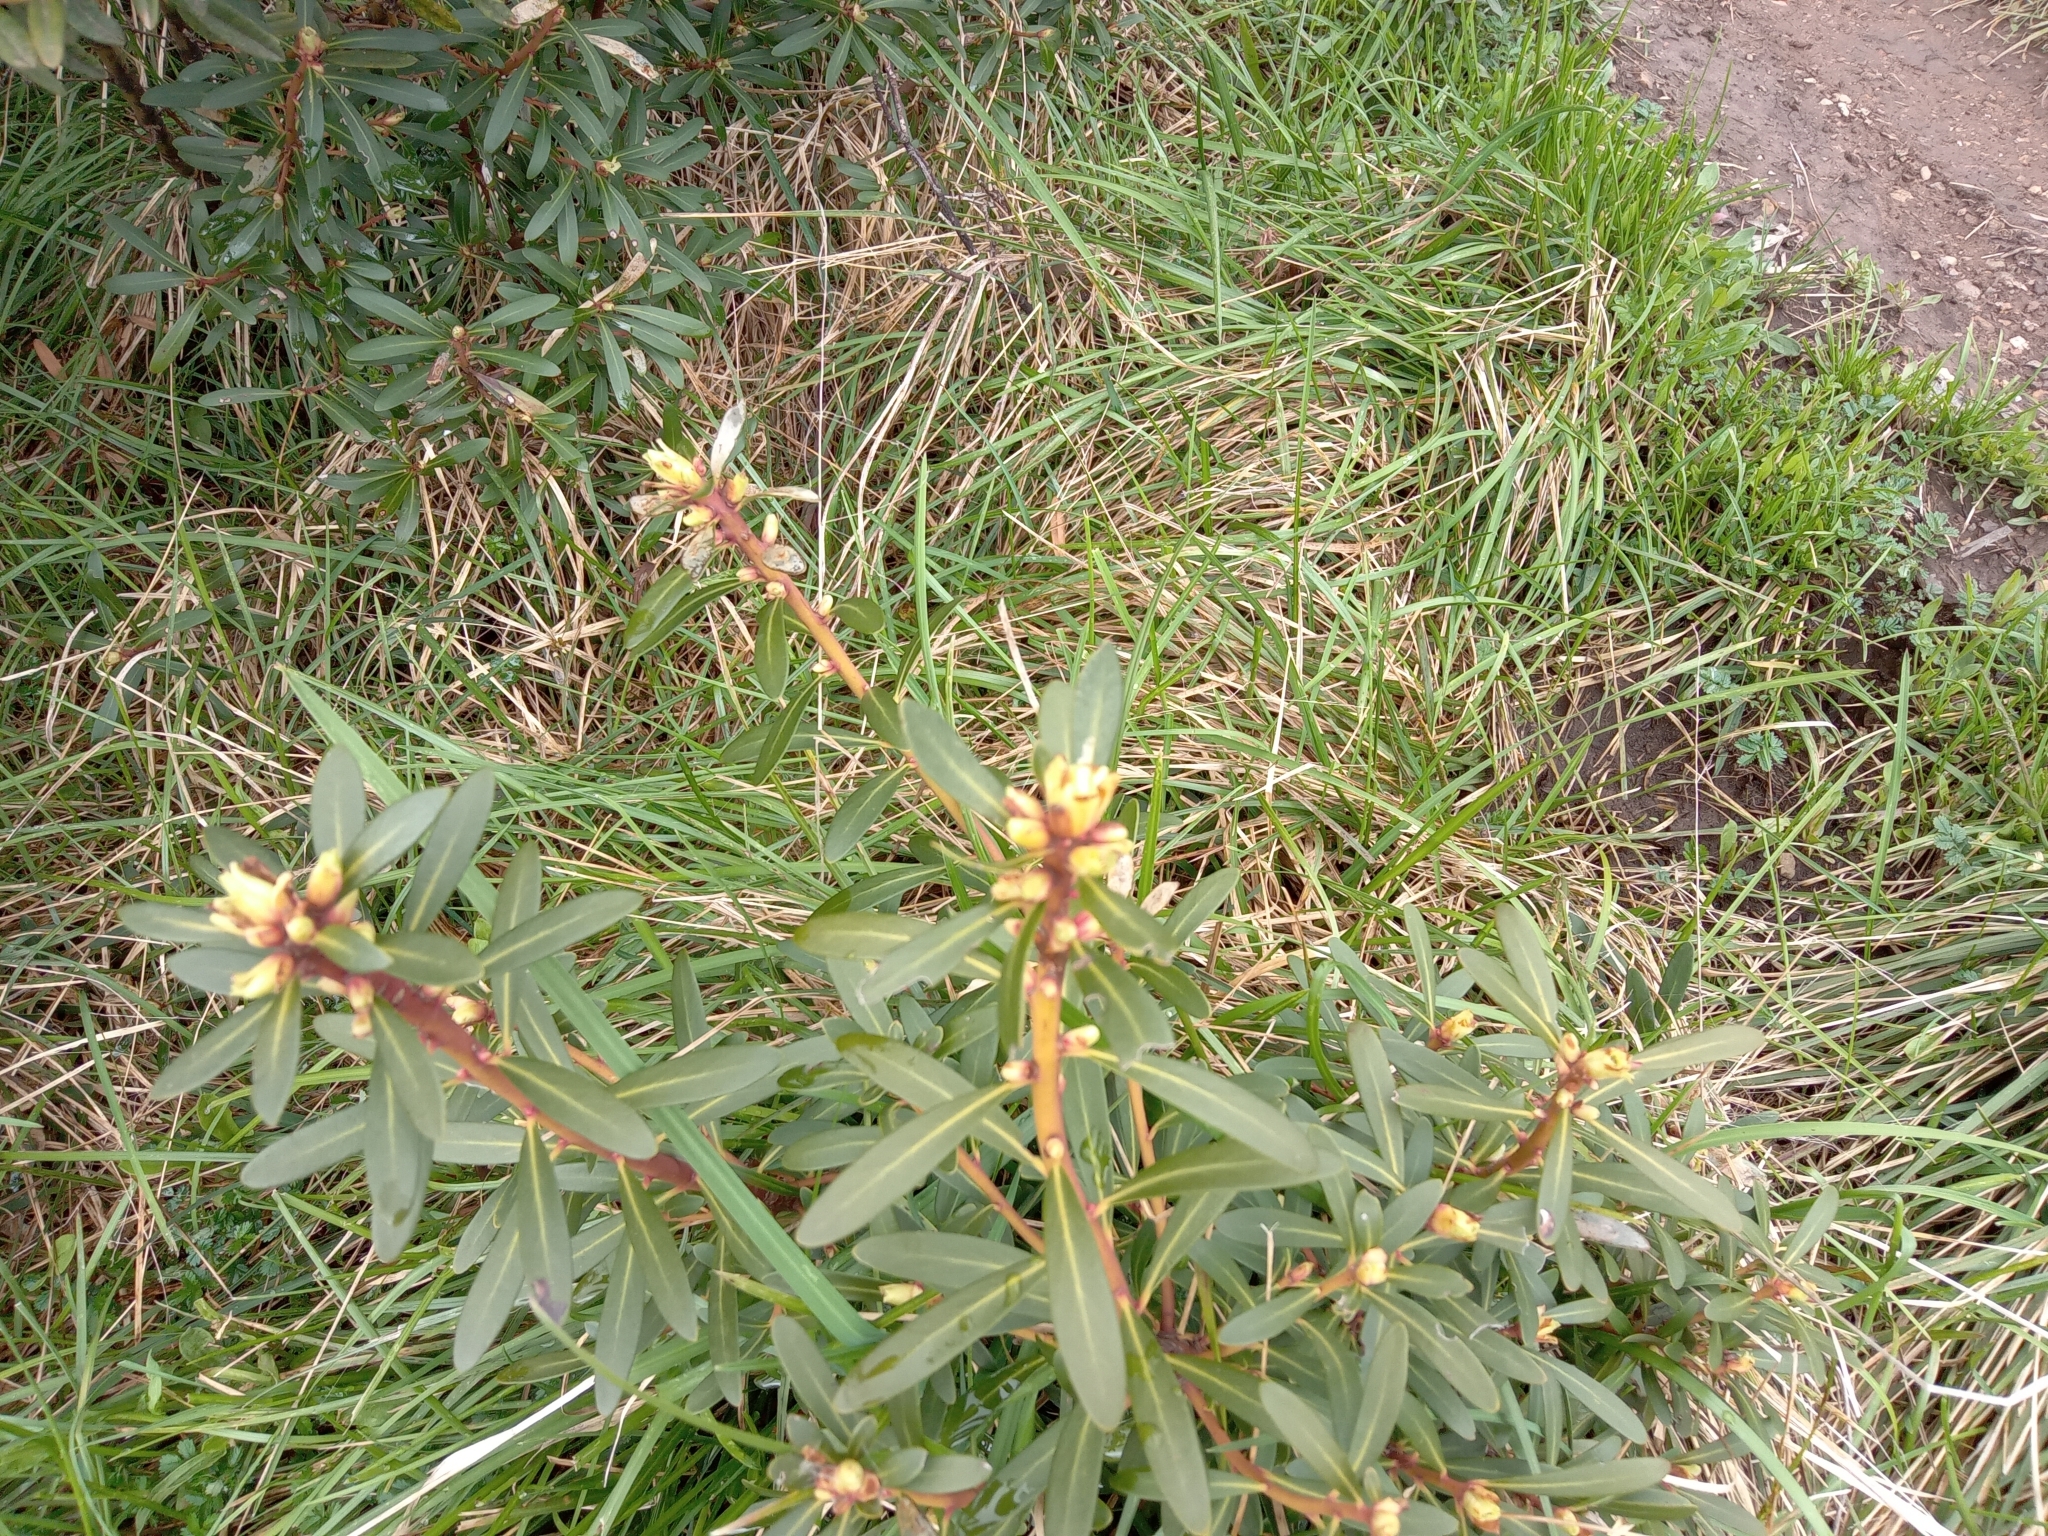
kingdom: Plantae
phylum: Tracheophyta
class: Magnoliopsida
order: Canellales
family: Winteraceae
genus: Drimys
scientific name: Drimys xerophila
